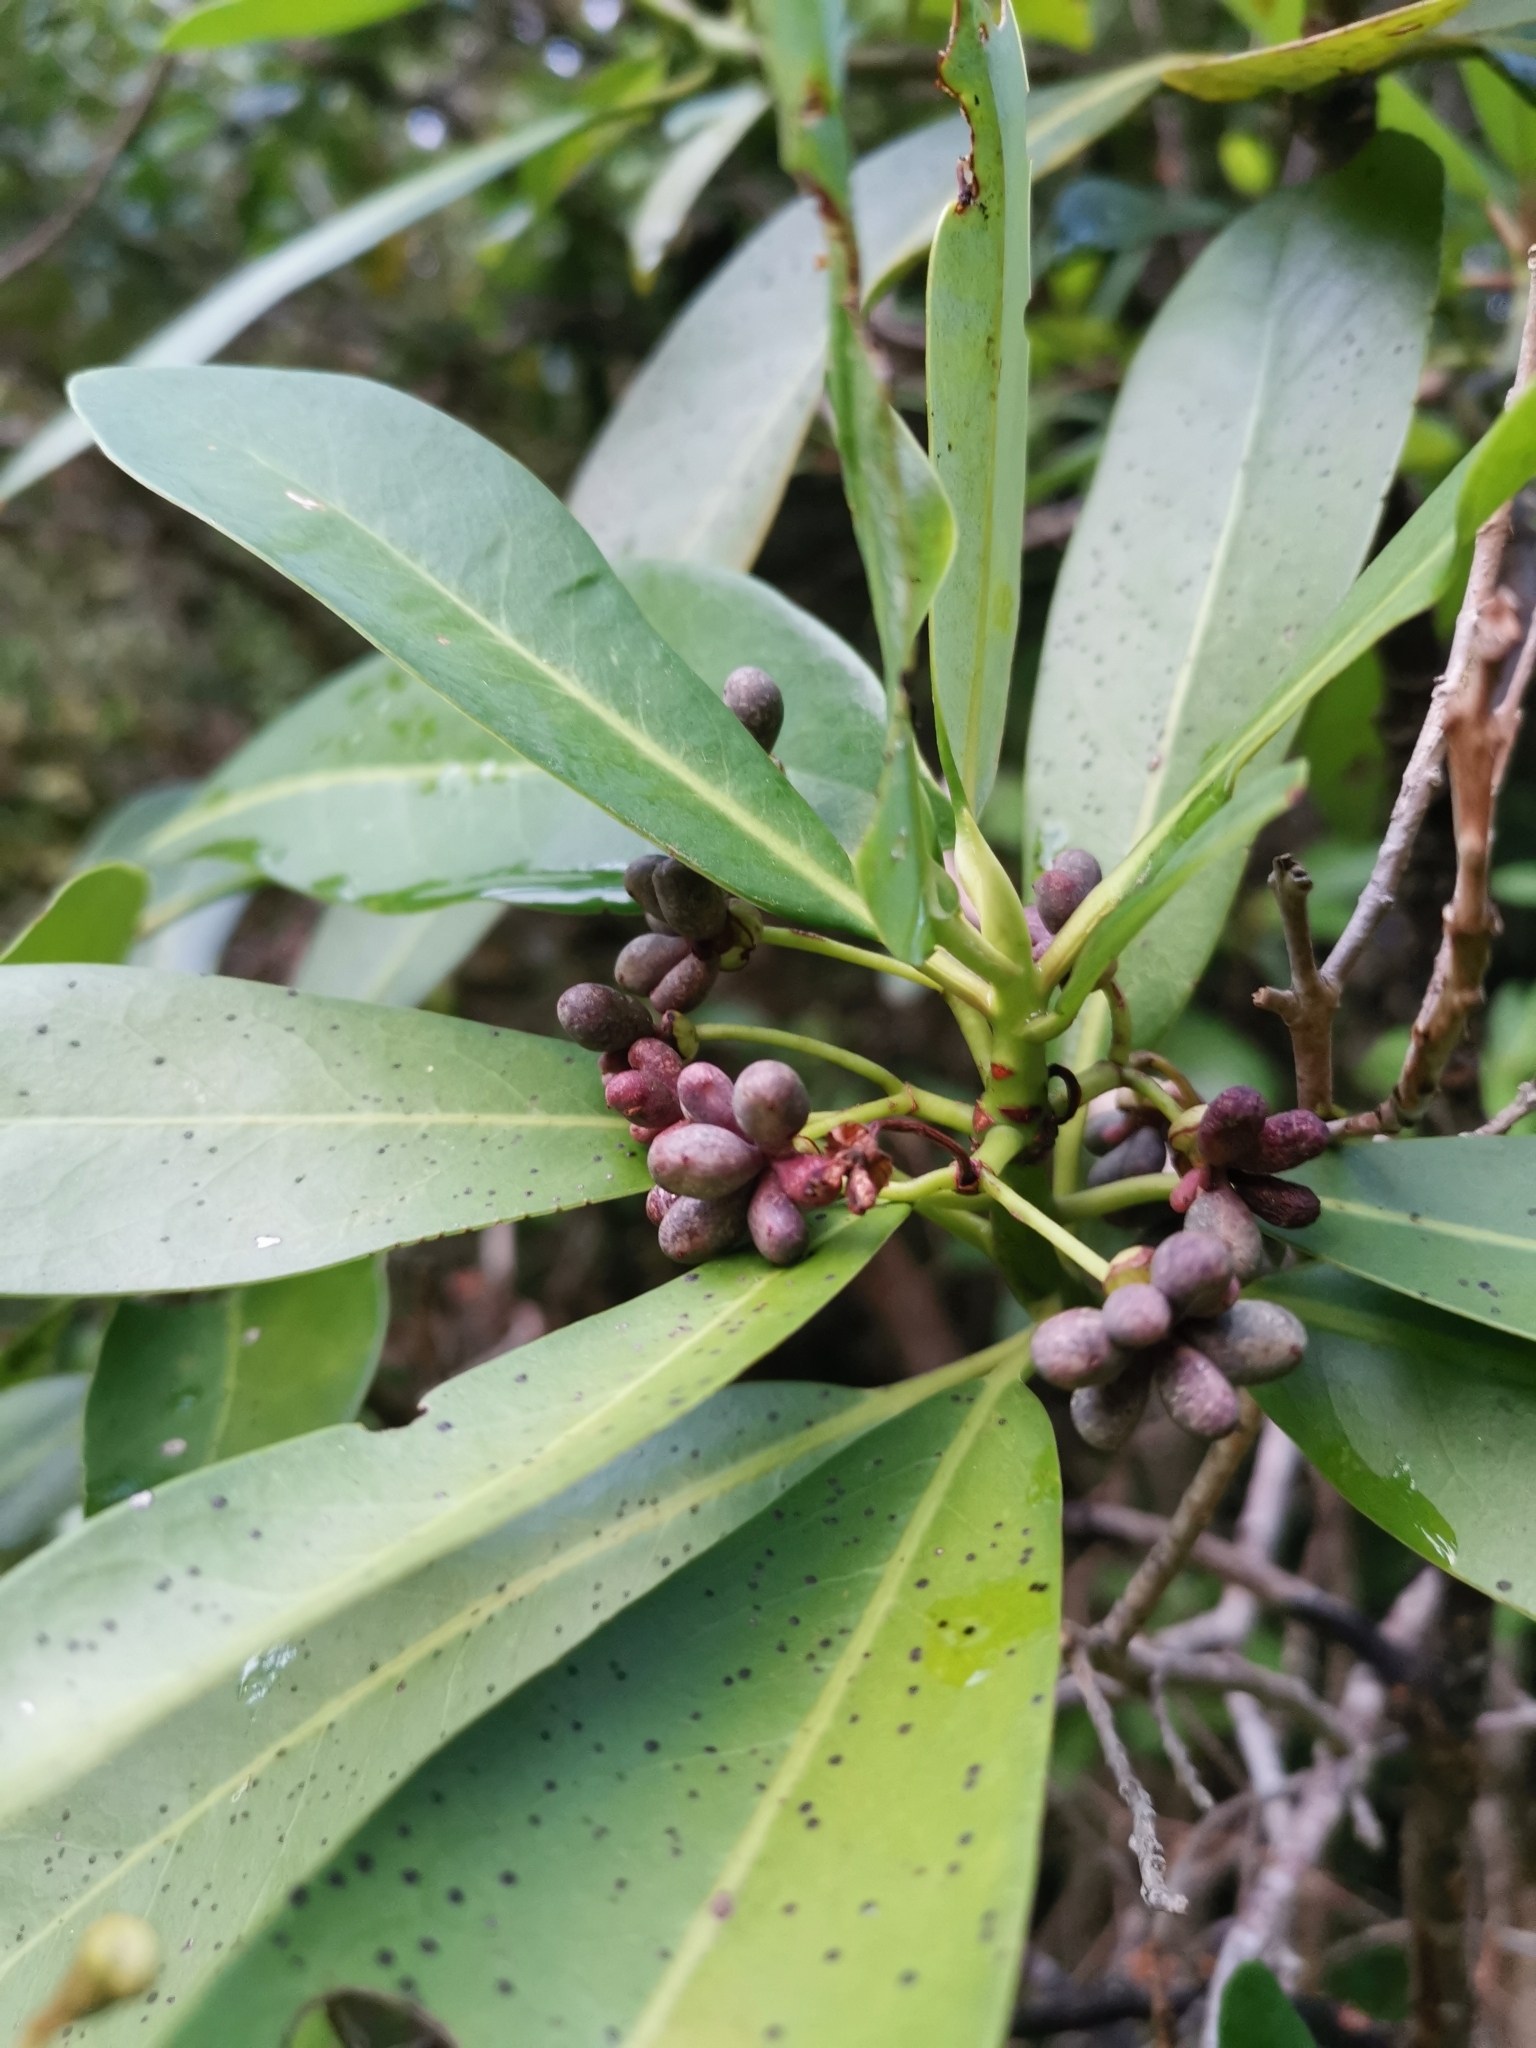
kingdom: Plantae
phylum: Tracheophyta
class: Magnoliopsida
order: Canellales
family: Winteraceae
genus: Drimys
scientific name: Drimys winteri
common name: Winter's-bark
